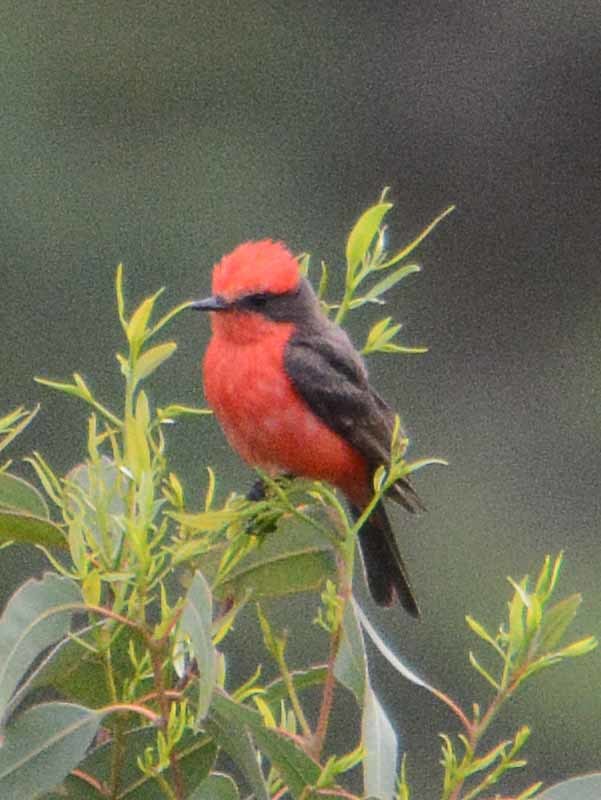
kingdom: Animalia
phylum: Chordata
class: Aves
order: Passeriformes
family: Tyrannidae
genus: Pyrocephalus
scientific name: Pyrocephalus rubinus
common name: Vermilion flycatcher
